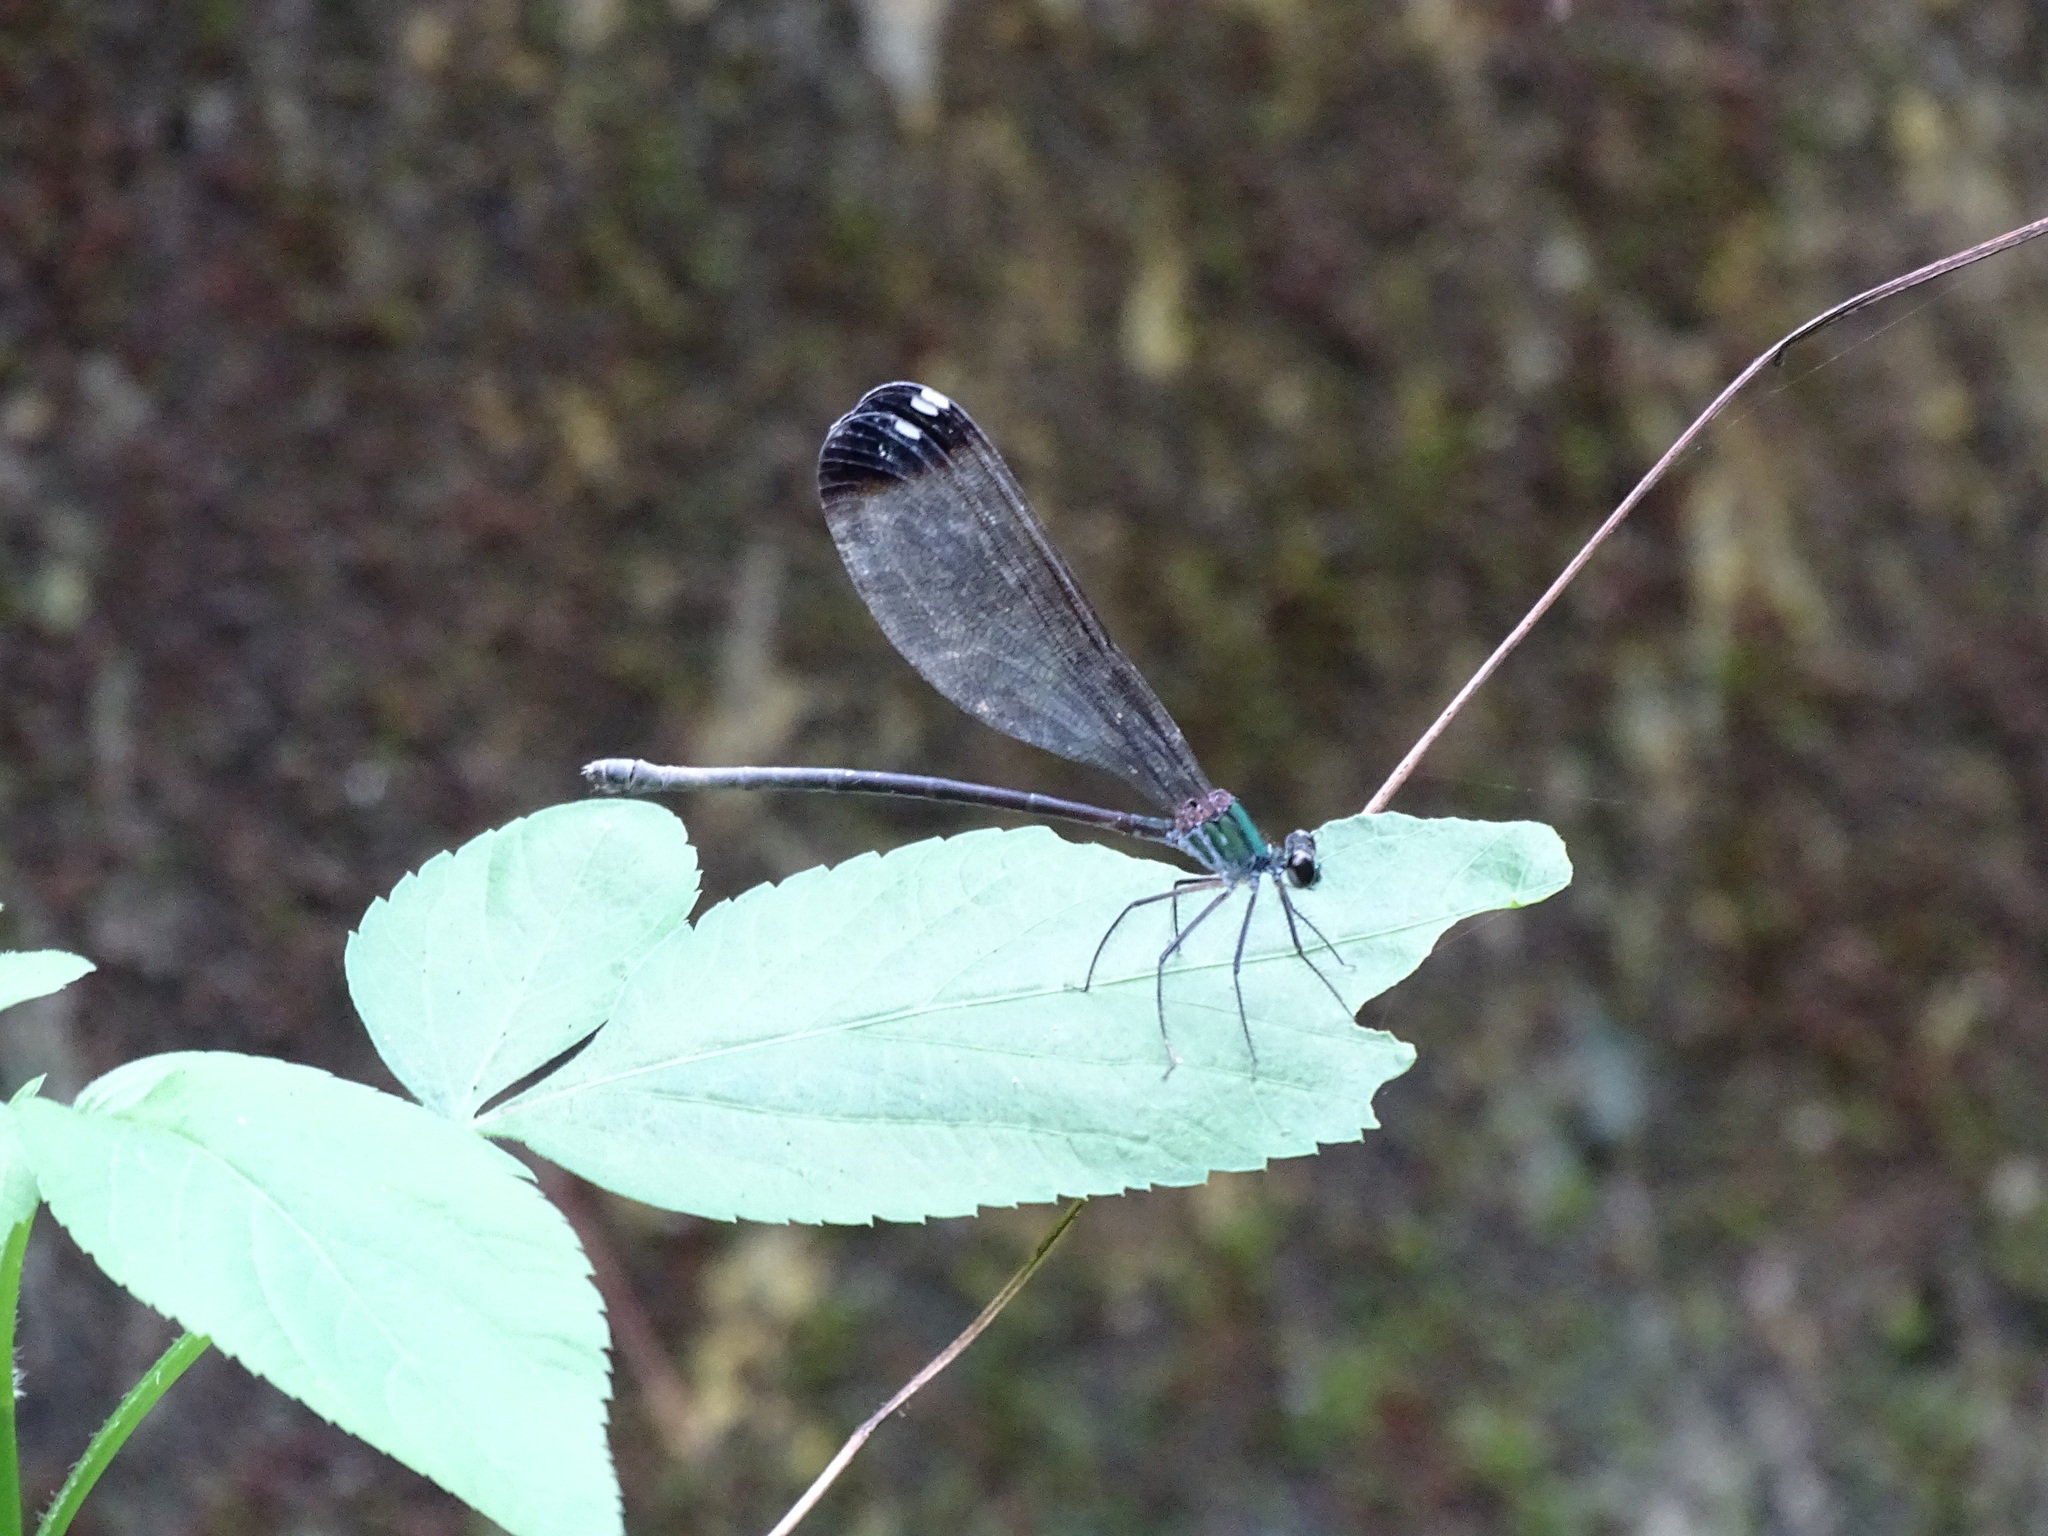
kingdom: Animalia
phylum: Arthropoda
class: Insecta
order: Odonata
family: Calopterygidae
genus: Psolodesmus
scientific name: Psolodesmus mandarinus
